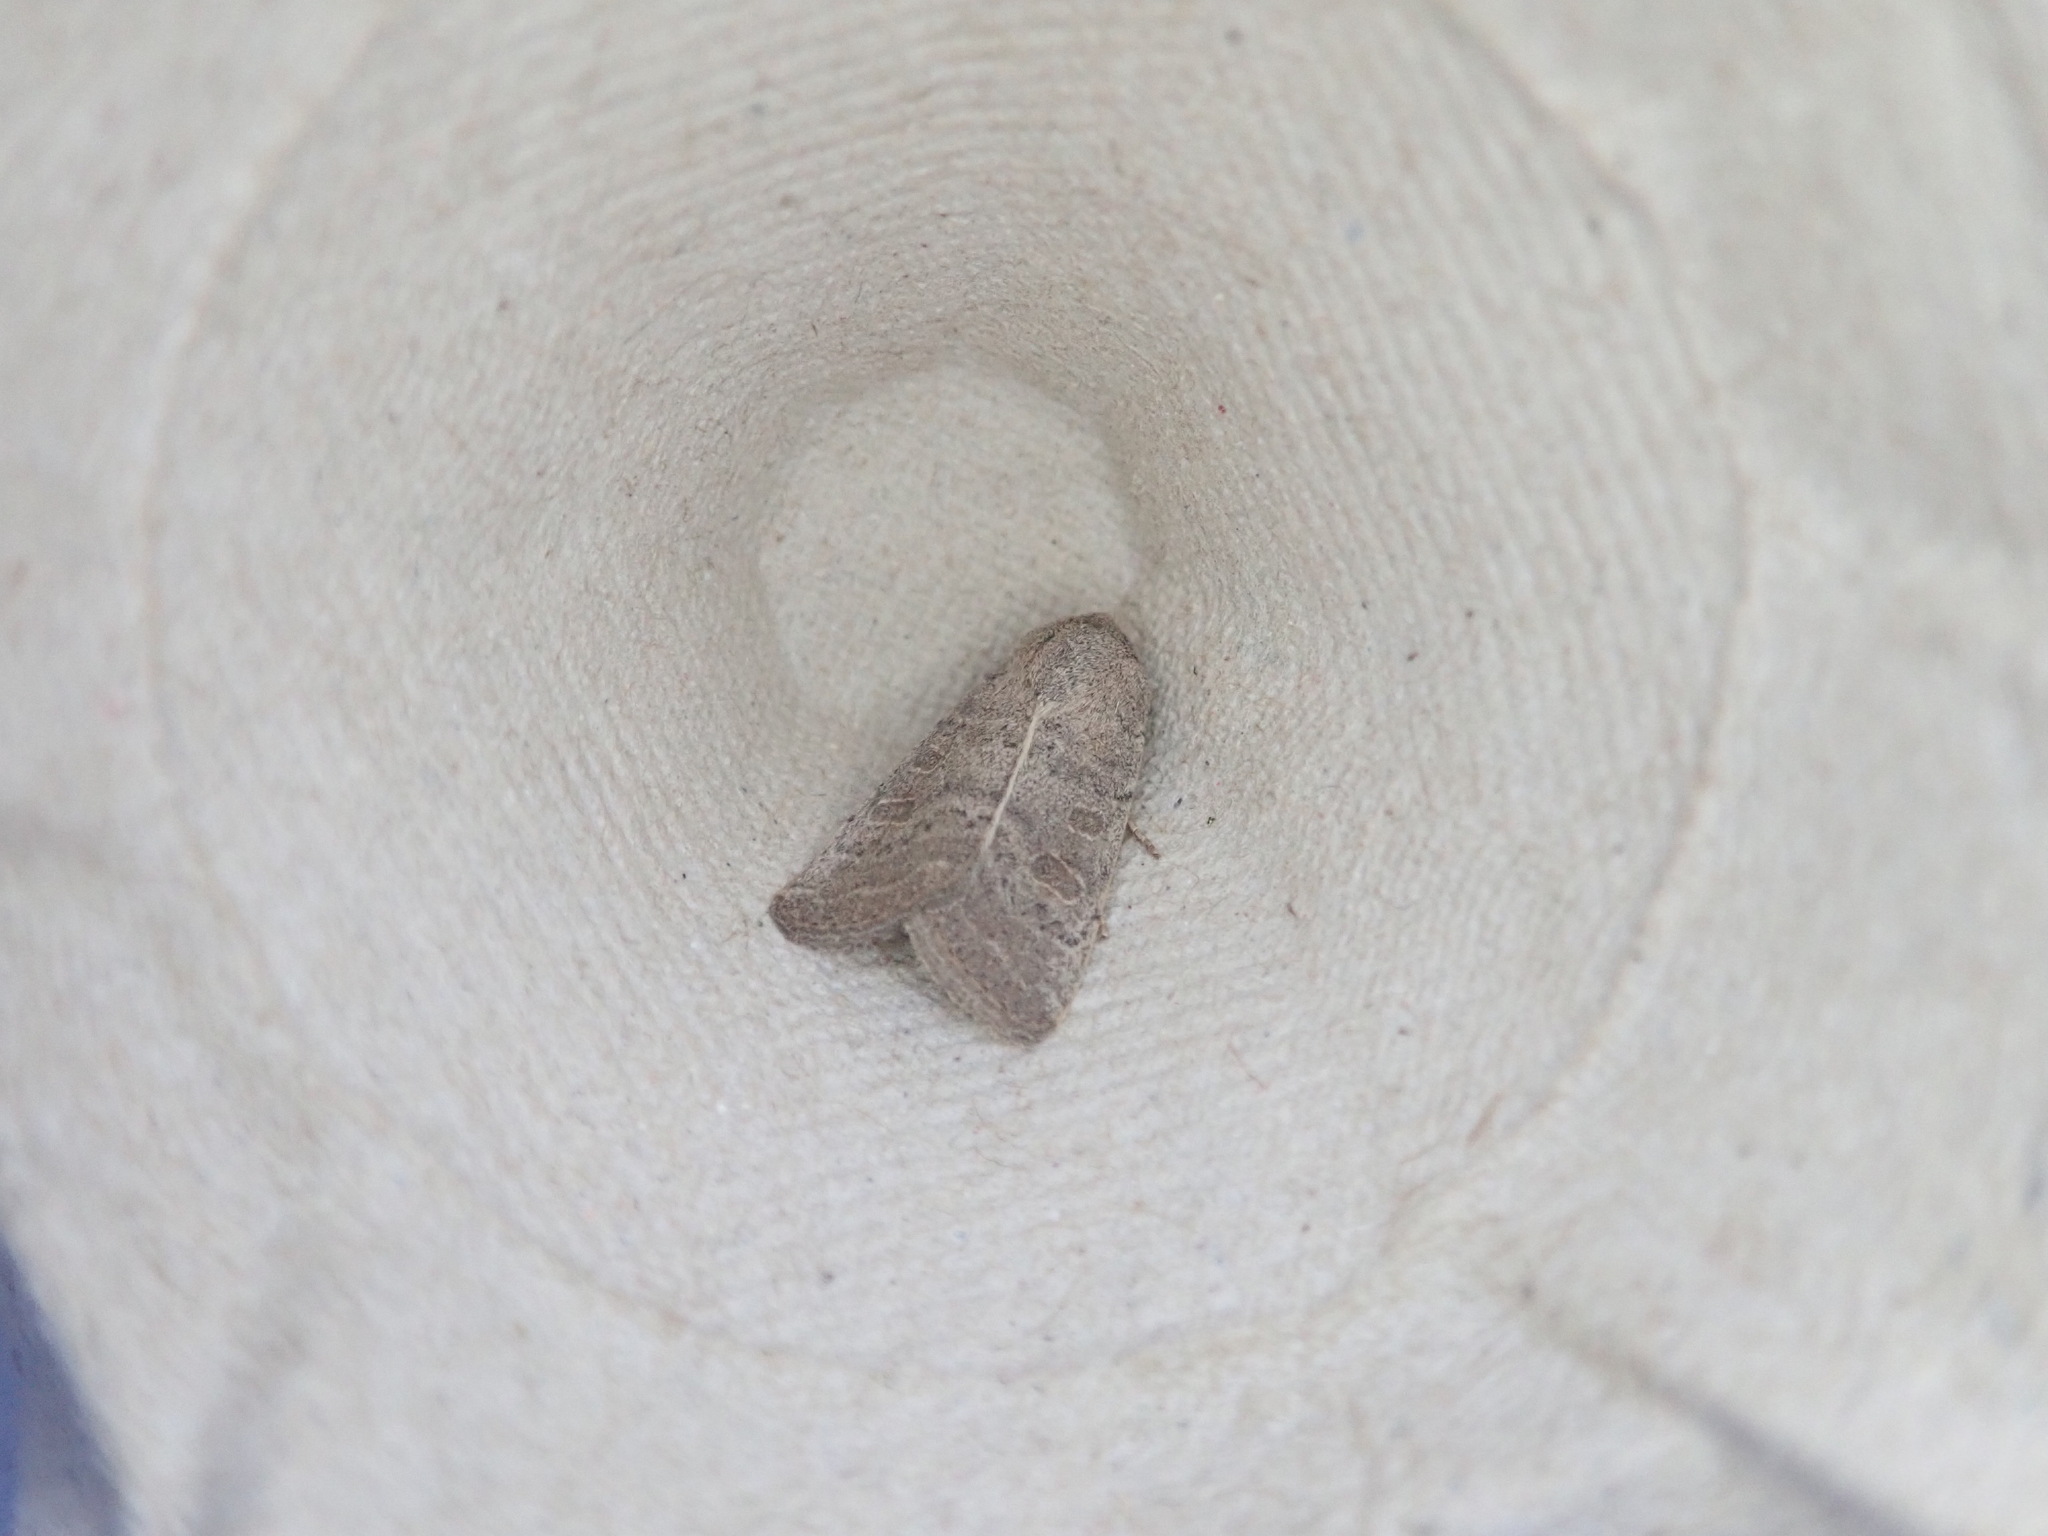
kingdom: Animalia
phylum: Arthropoda
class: Insecta
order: Lepidoptera
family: Noctuidae
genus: Hoplodrina
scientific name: Hoplodrina ambigua
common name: Vine's rustic
